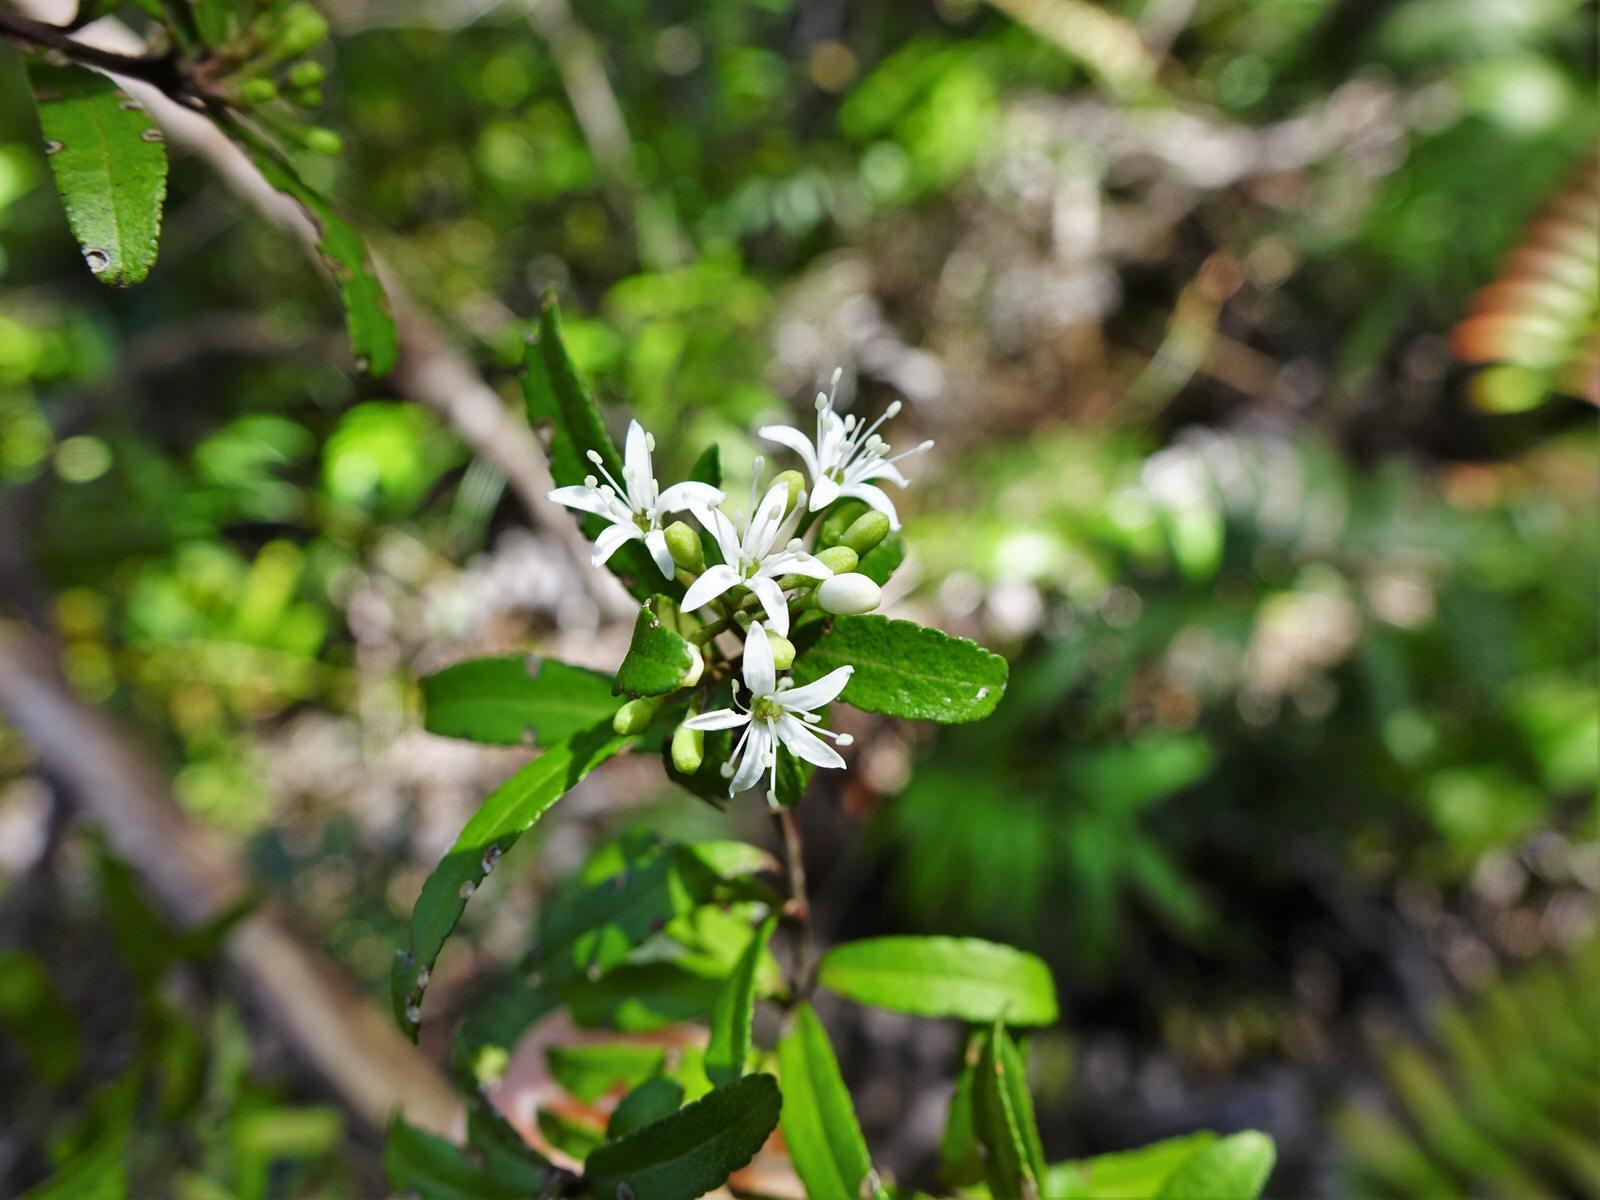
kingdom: Plantae
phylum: Tracheophyta
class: Magnoliopsida
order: Sapindales
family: Rutaceae
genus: Leionema
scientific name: Leionema nudum
